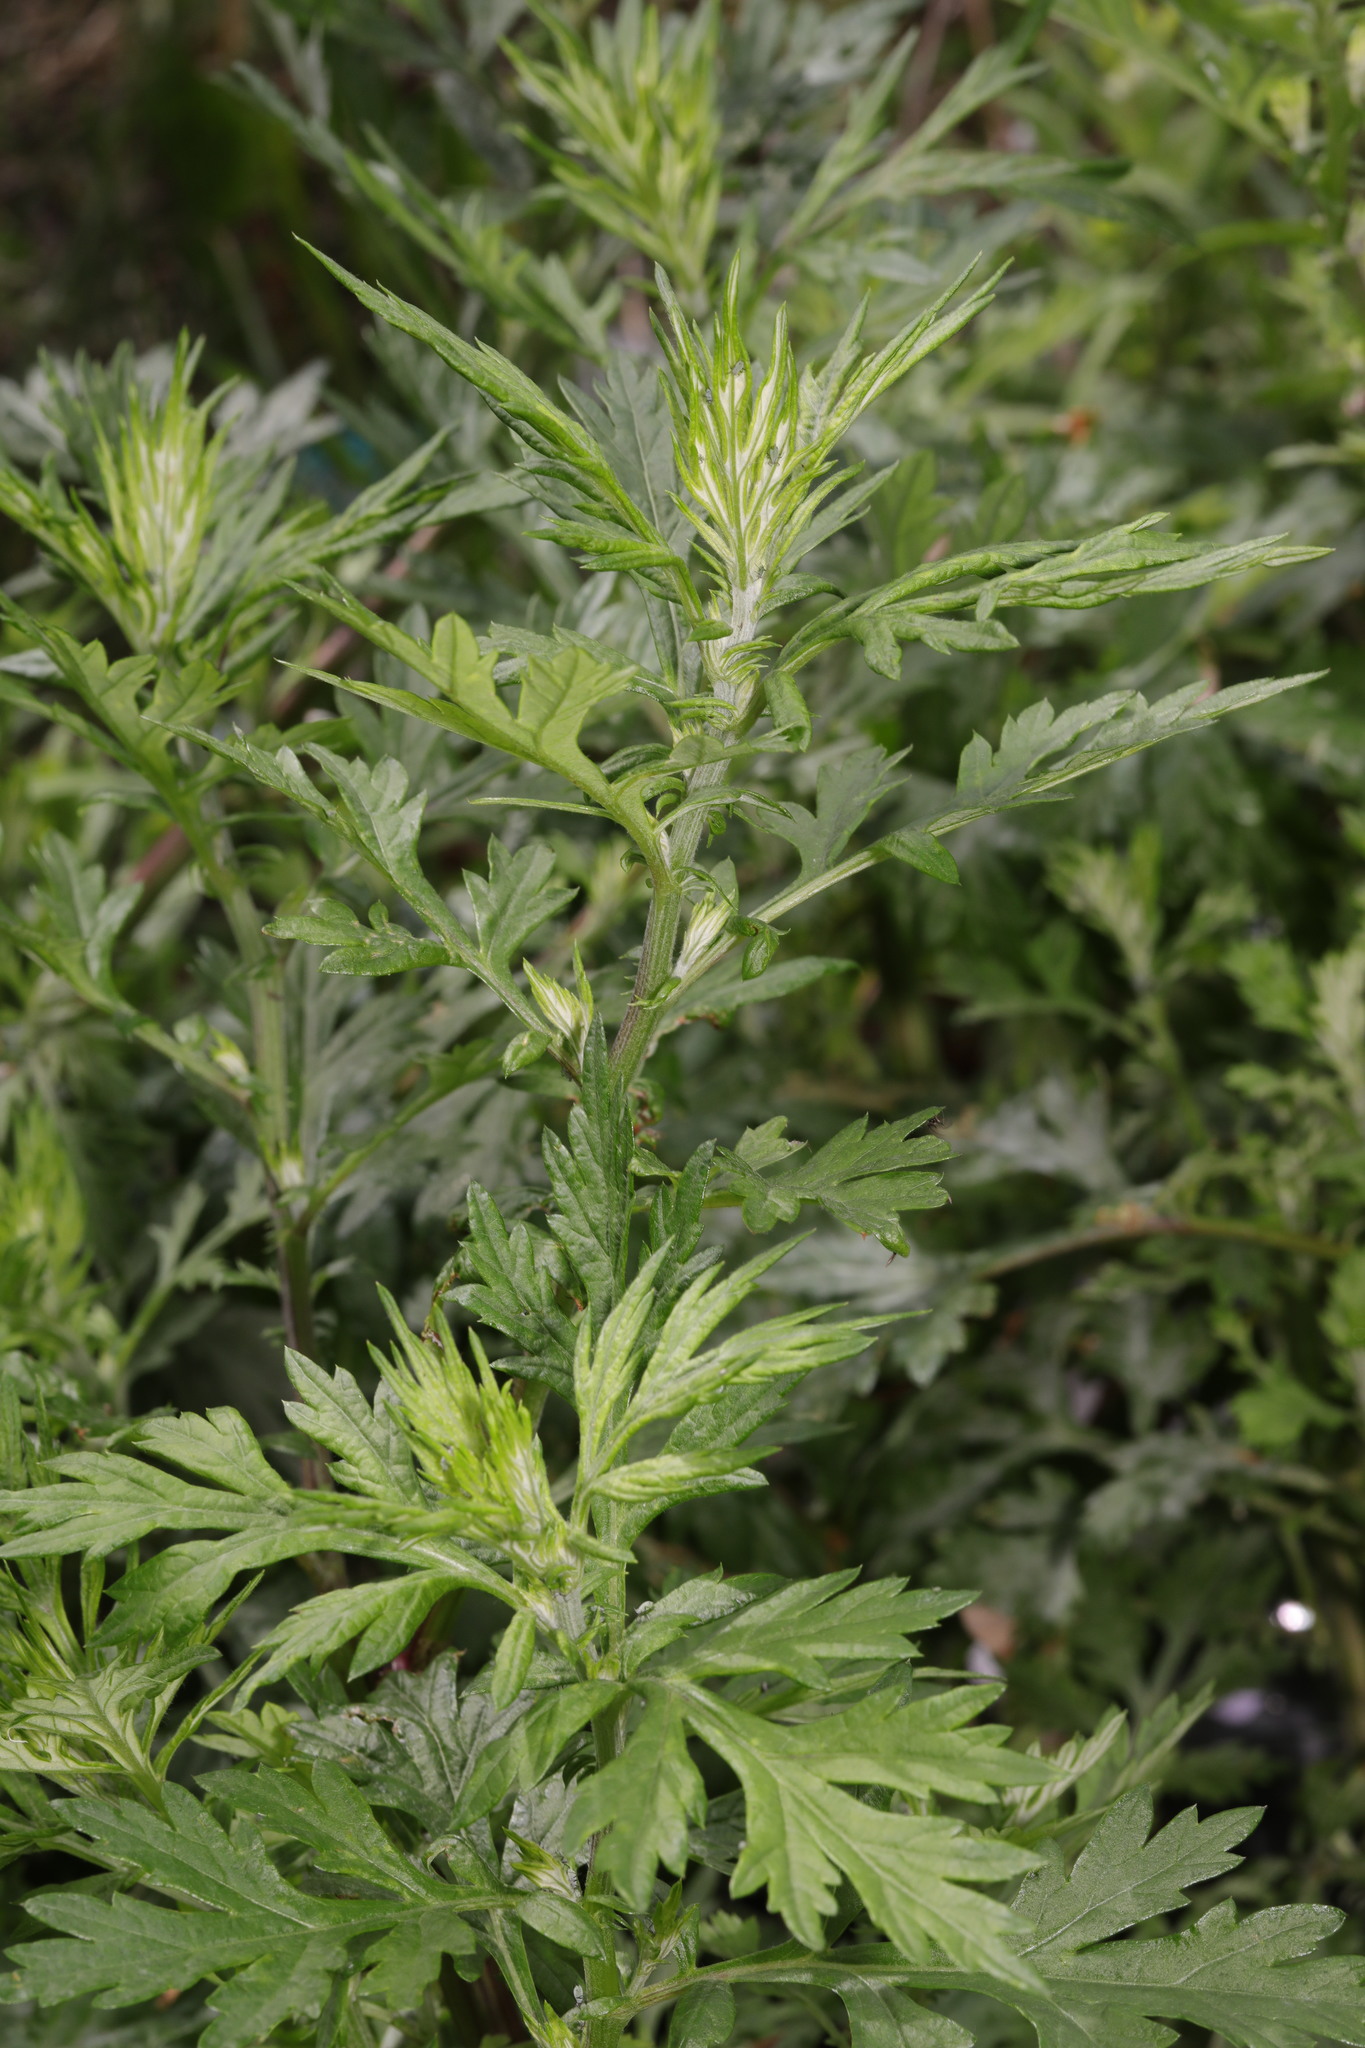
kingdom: Plantae
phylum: Tracheophyta
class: Magnoliopsida
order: Asterales
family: Asteraceae
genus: Artemisia
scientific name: Artemisia vulgaris
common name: Mugwort
